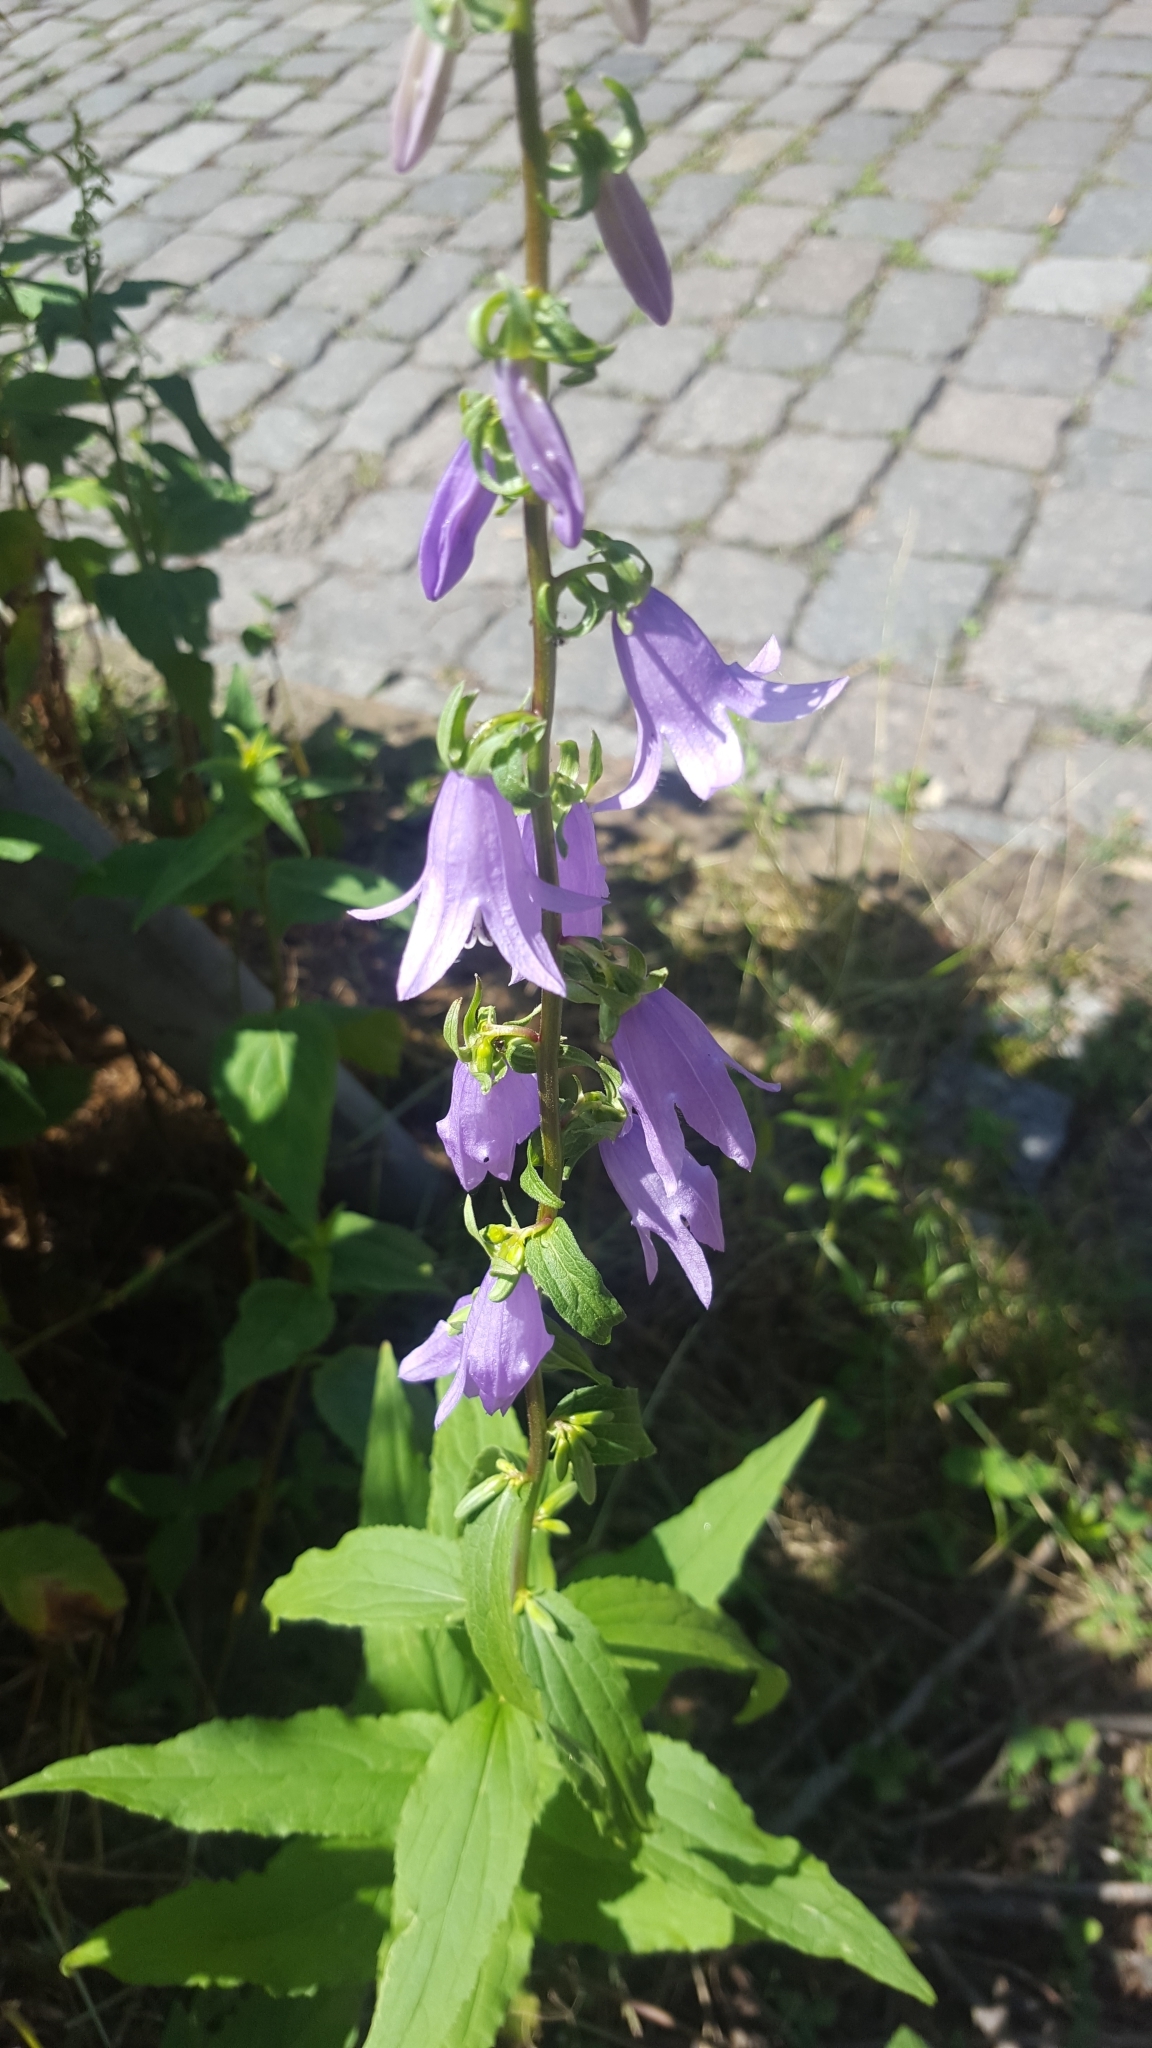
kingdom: Plantae
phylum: Tracheophyta
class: Magnoliopsida
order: Asterales
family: Campanulaceae
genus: Campanula
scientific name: Campanula rapunculoides
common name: Creeping bellflower
